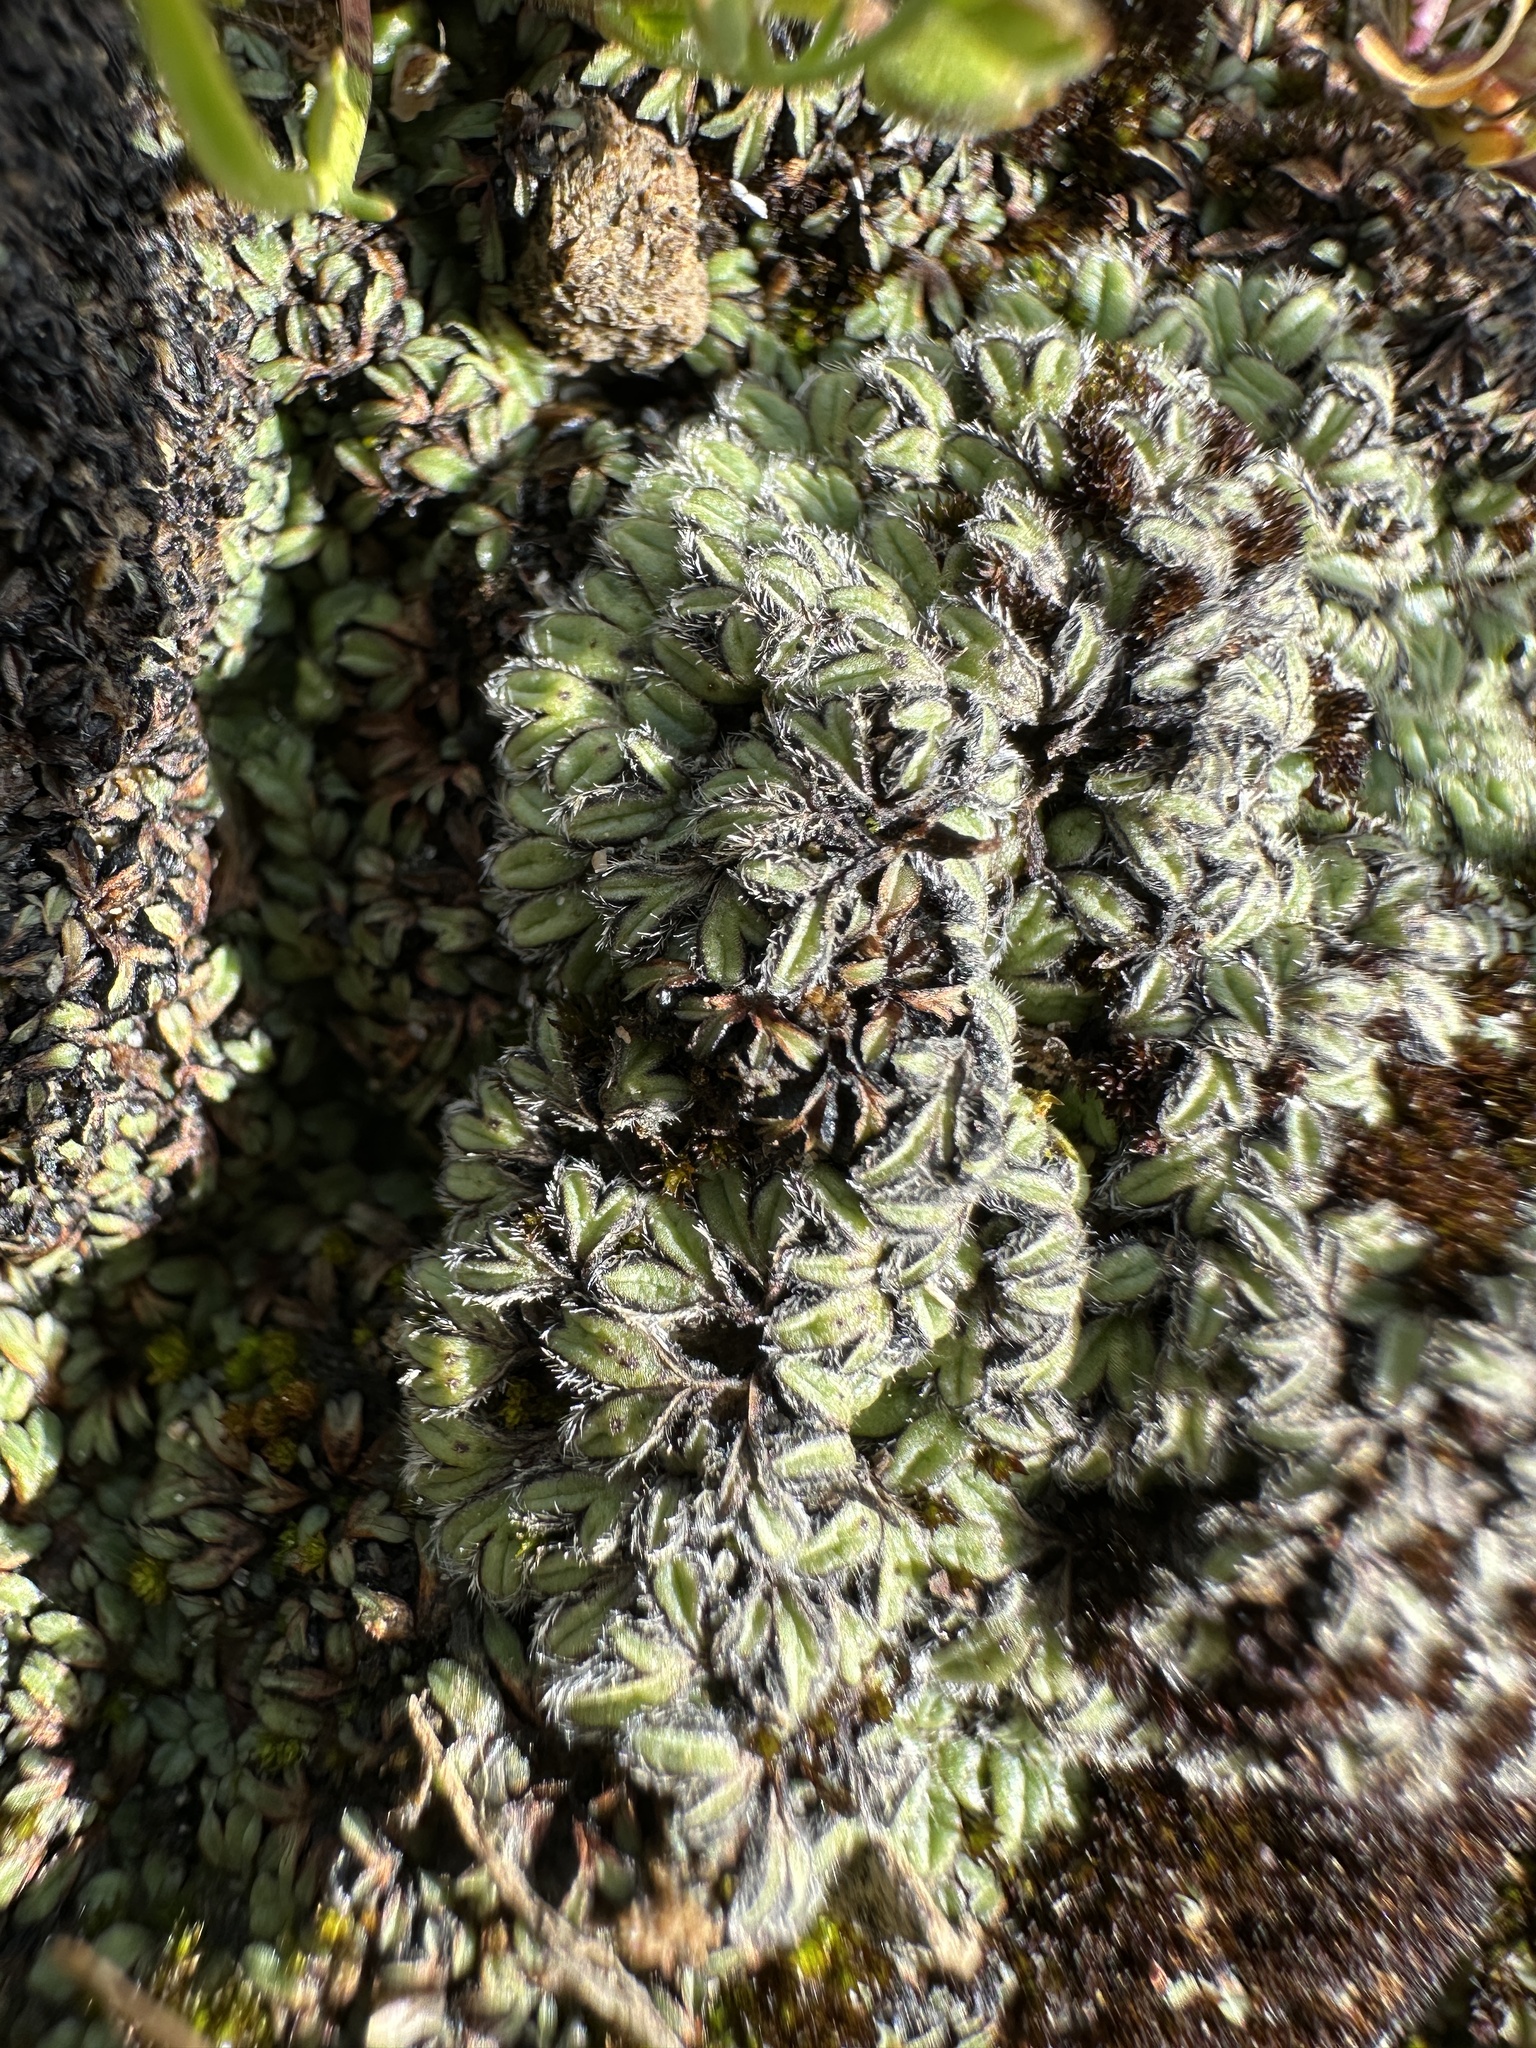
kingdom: Plantae
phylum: Marchantiophyta
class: Marchantiopsida
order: Marchantiales
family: Ricciaceae
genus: Riccia
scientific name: Riccia trichocarpa
